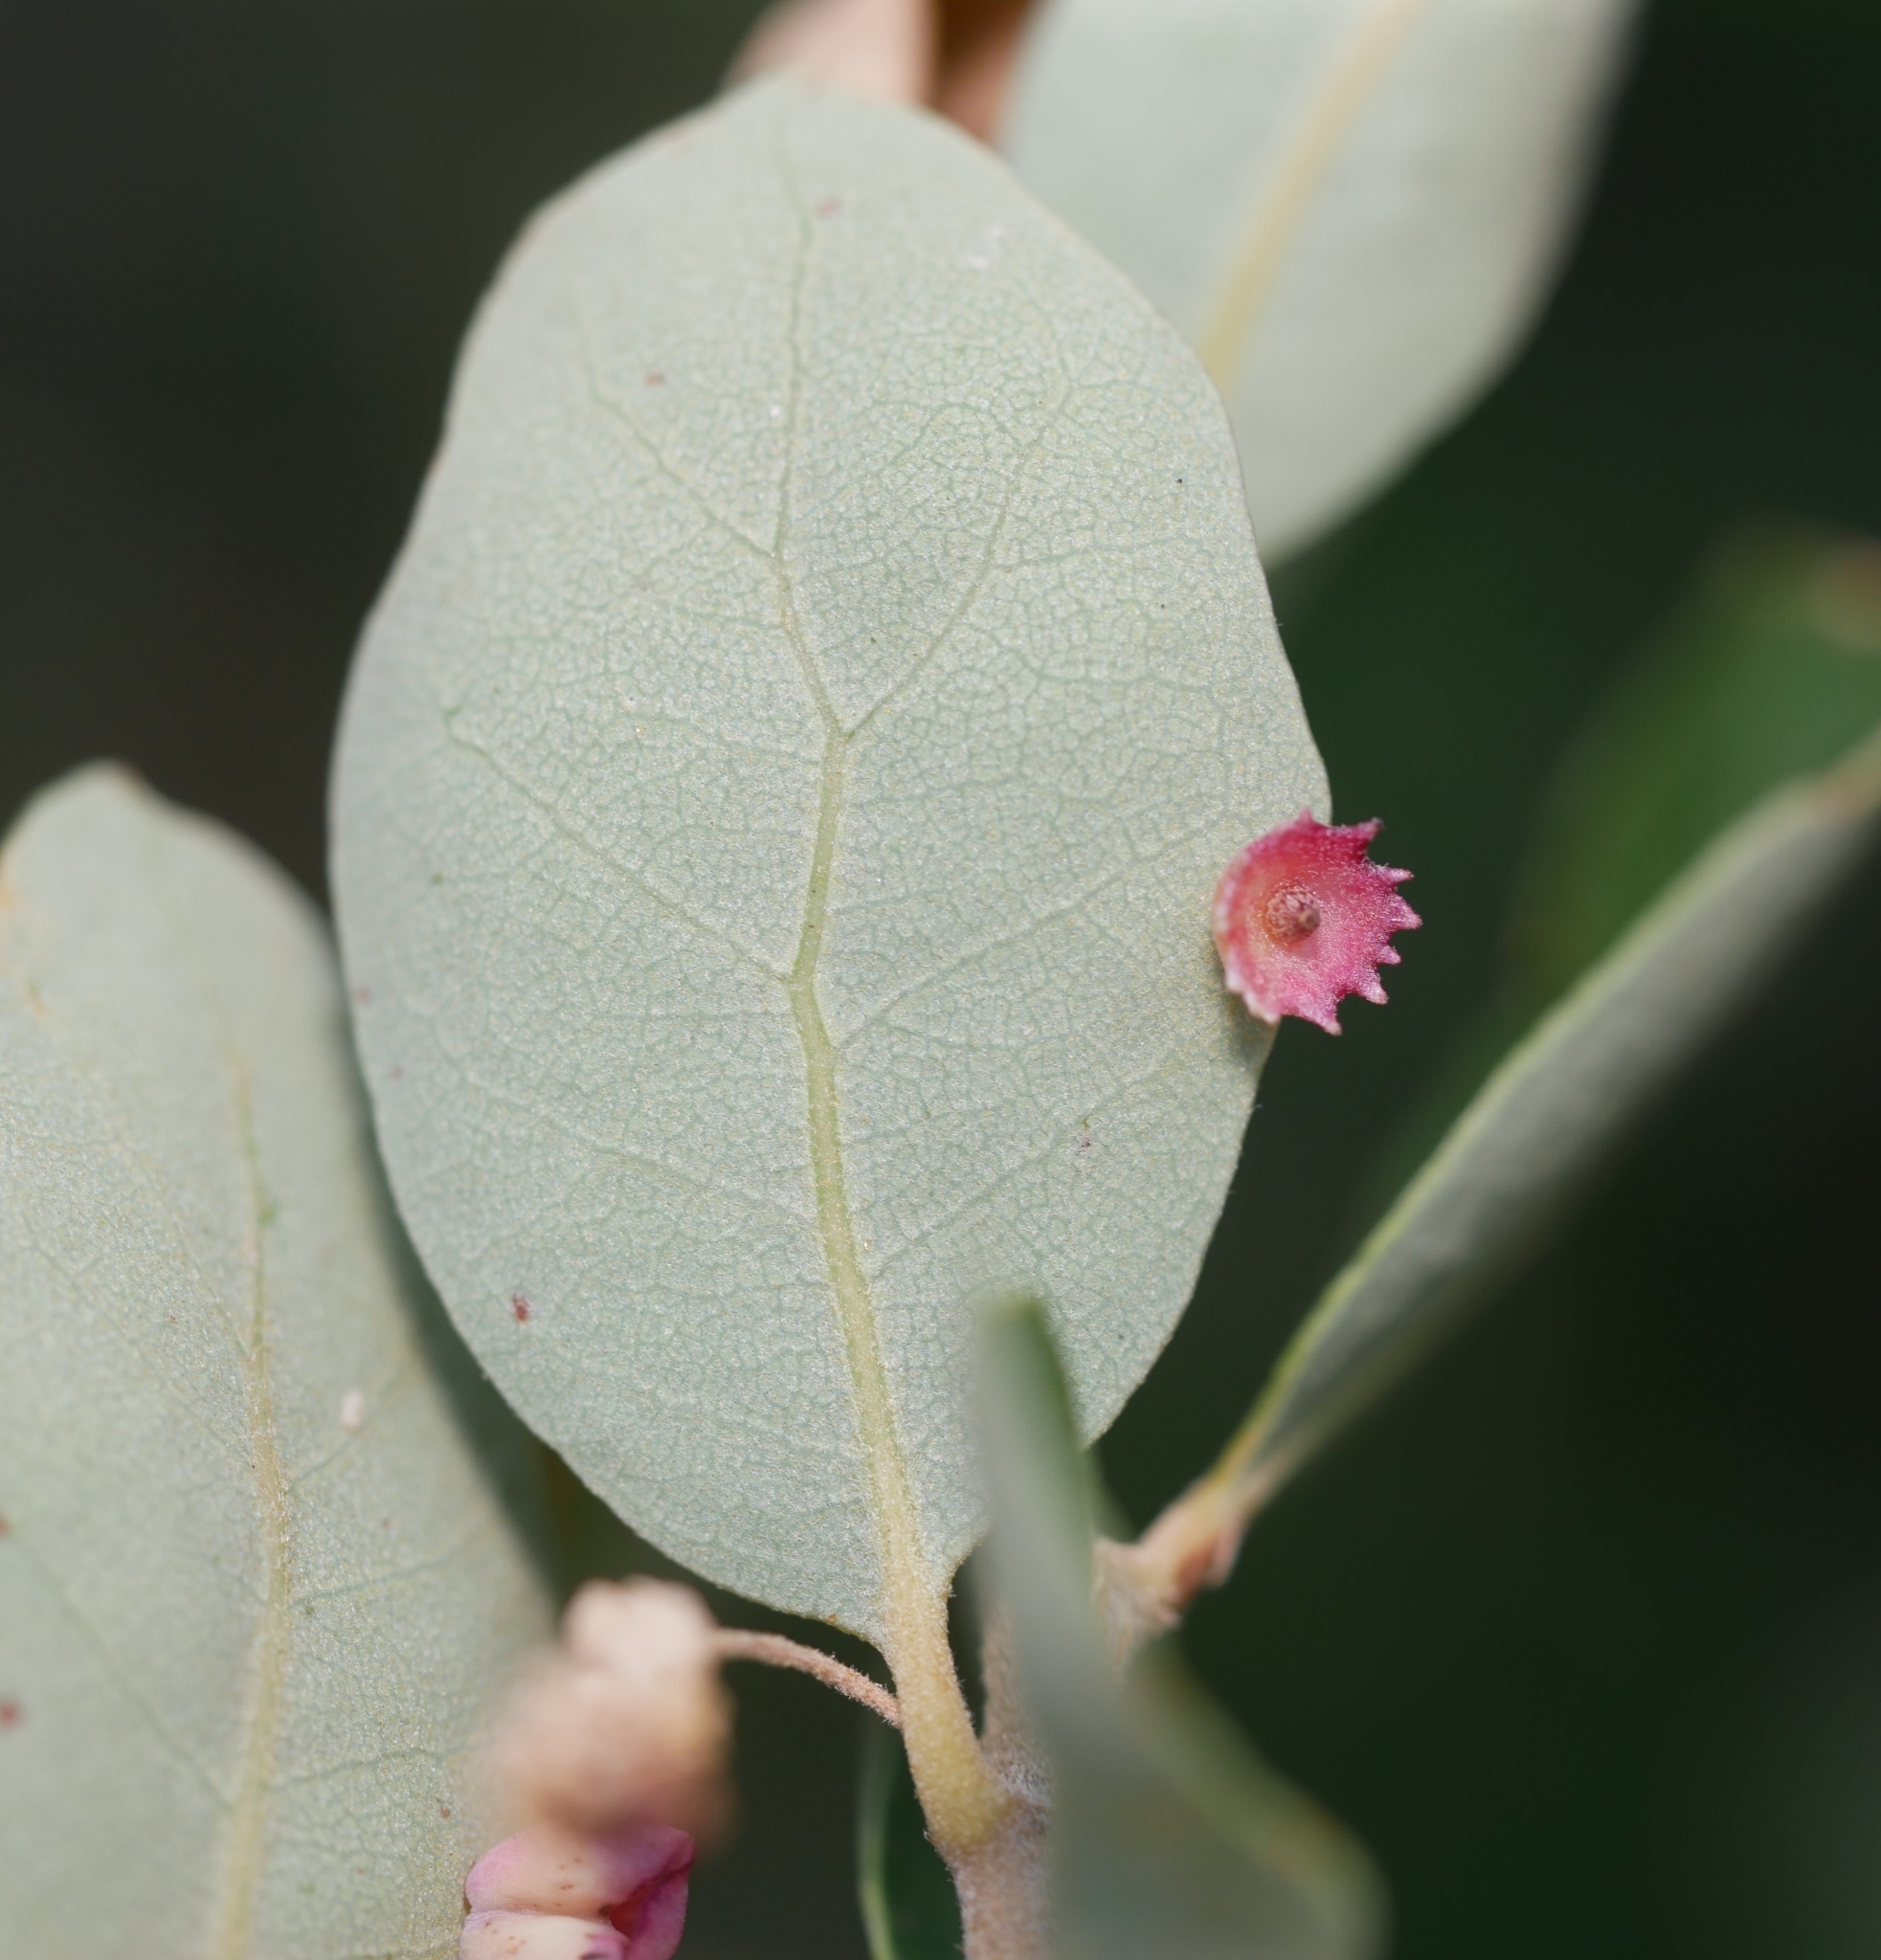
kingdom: Animalia
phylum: Arthropoda
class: Insecta
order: Hymenoptera
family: Cynipidae
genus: Andricus
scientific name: Andricus
